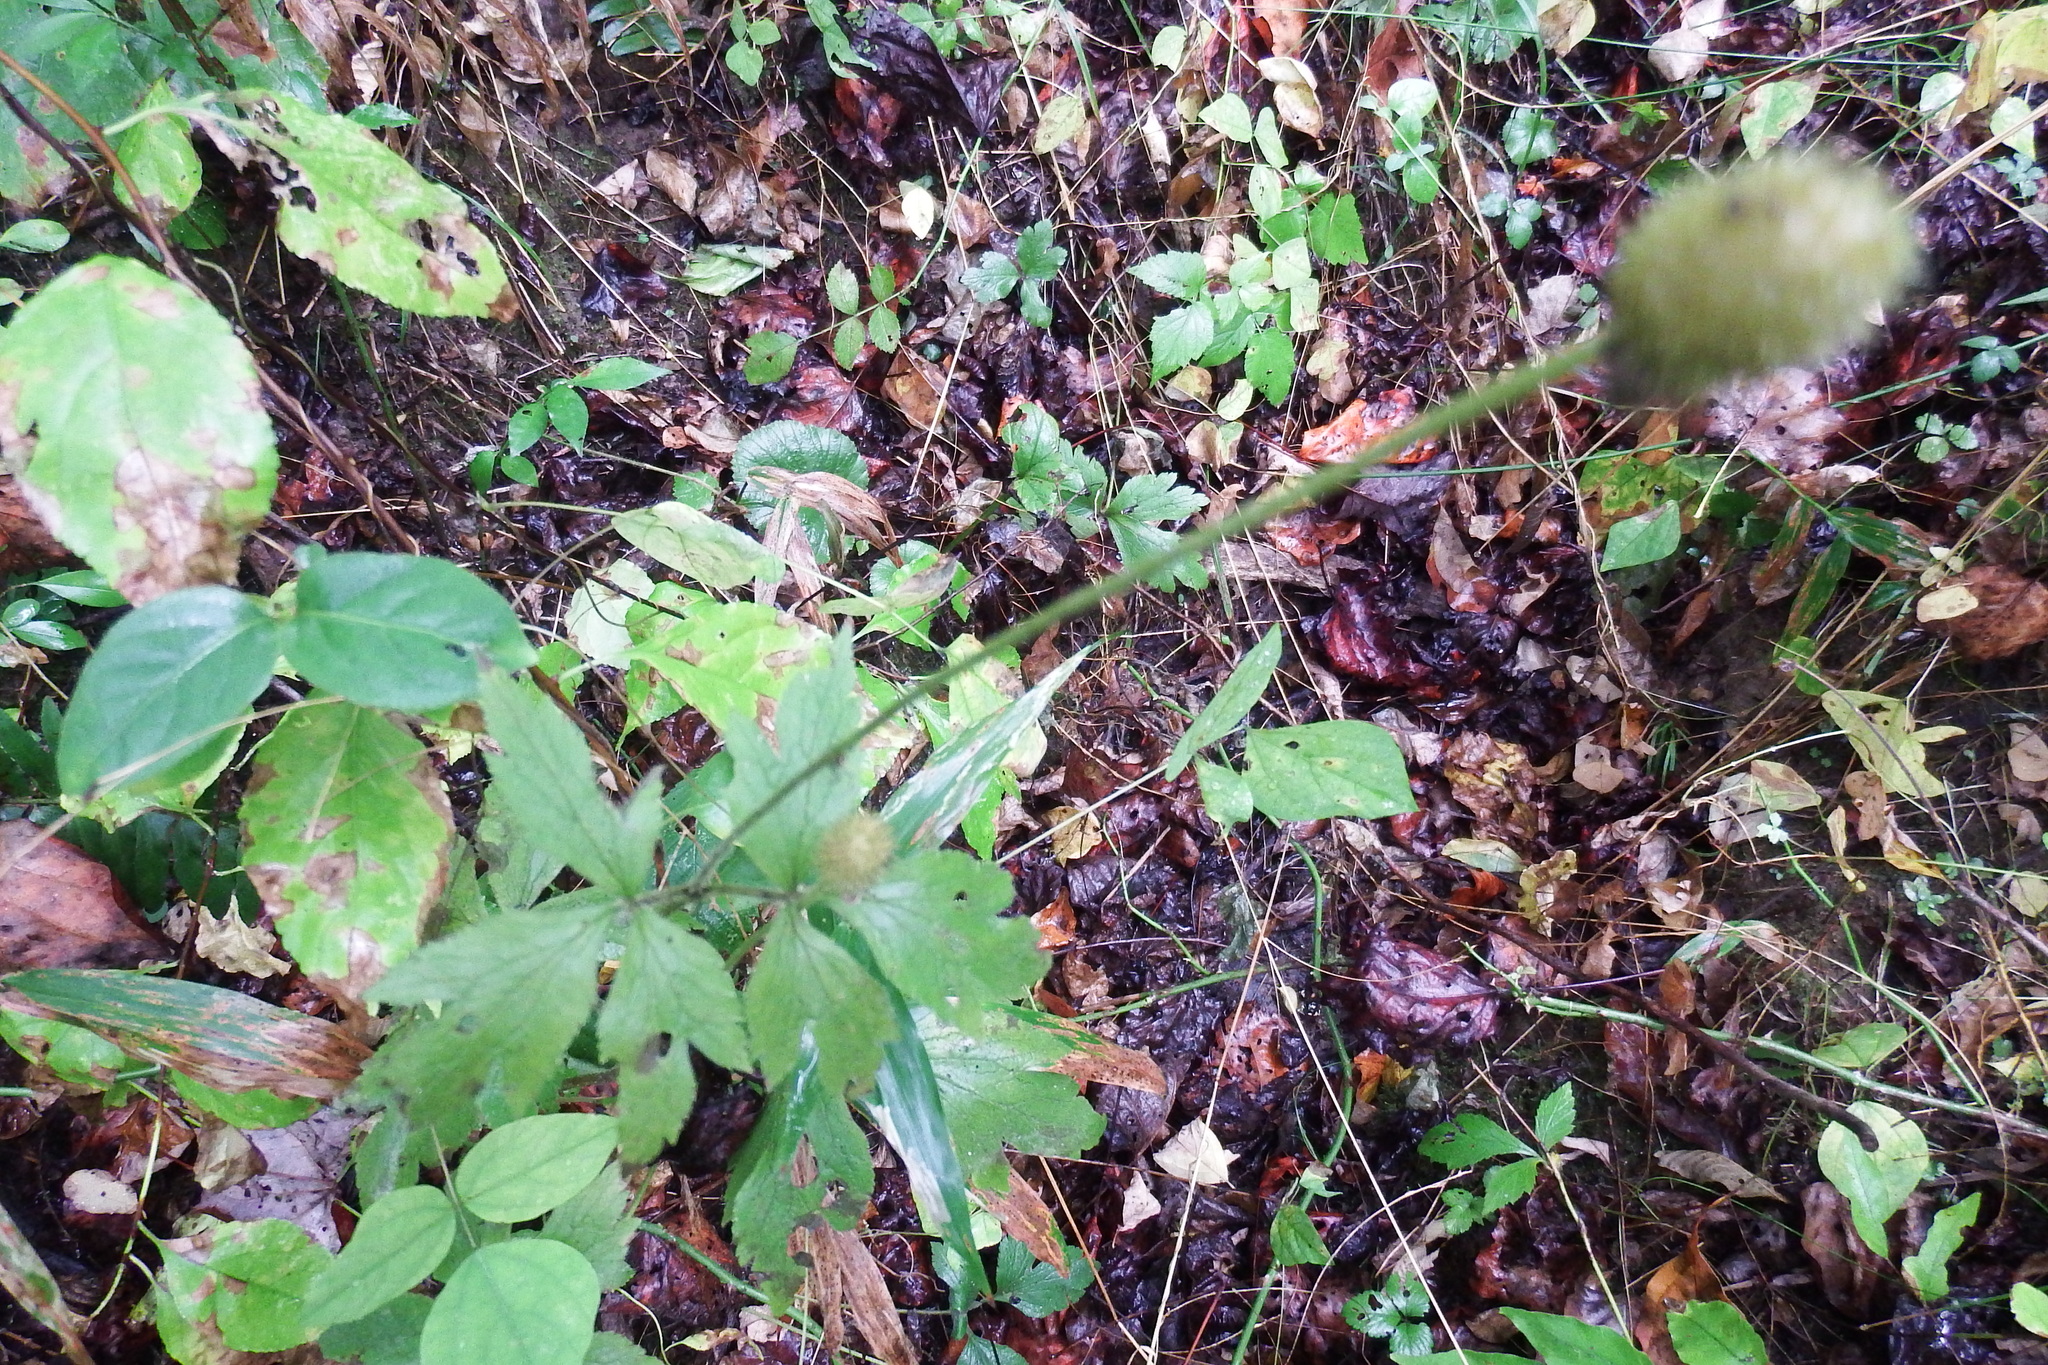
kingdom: Plantae
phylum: Tracheophyta
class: Magnoliopsida
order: Ranunculales
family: Ranunculaceae
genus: Anemone
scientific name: Anemone virginiana
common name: Tall anemone
